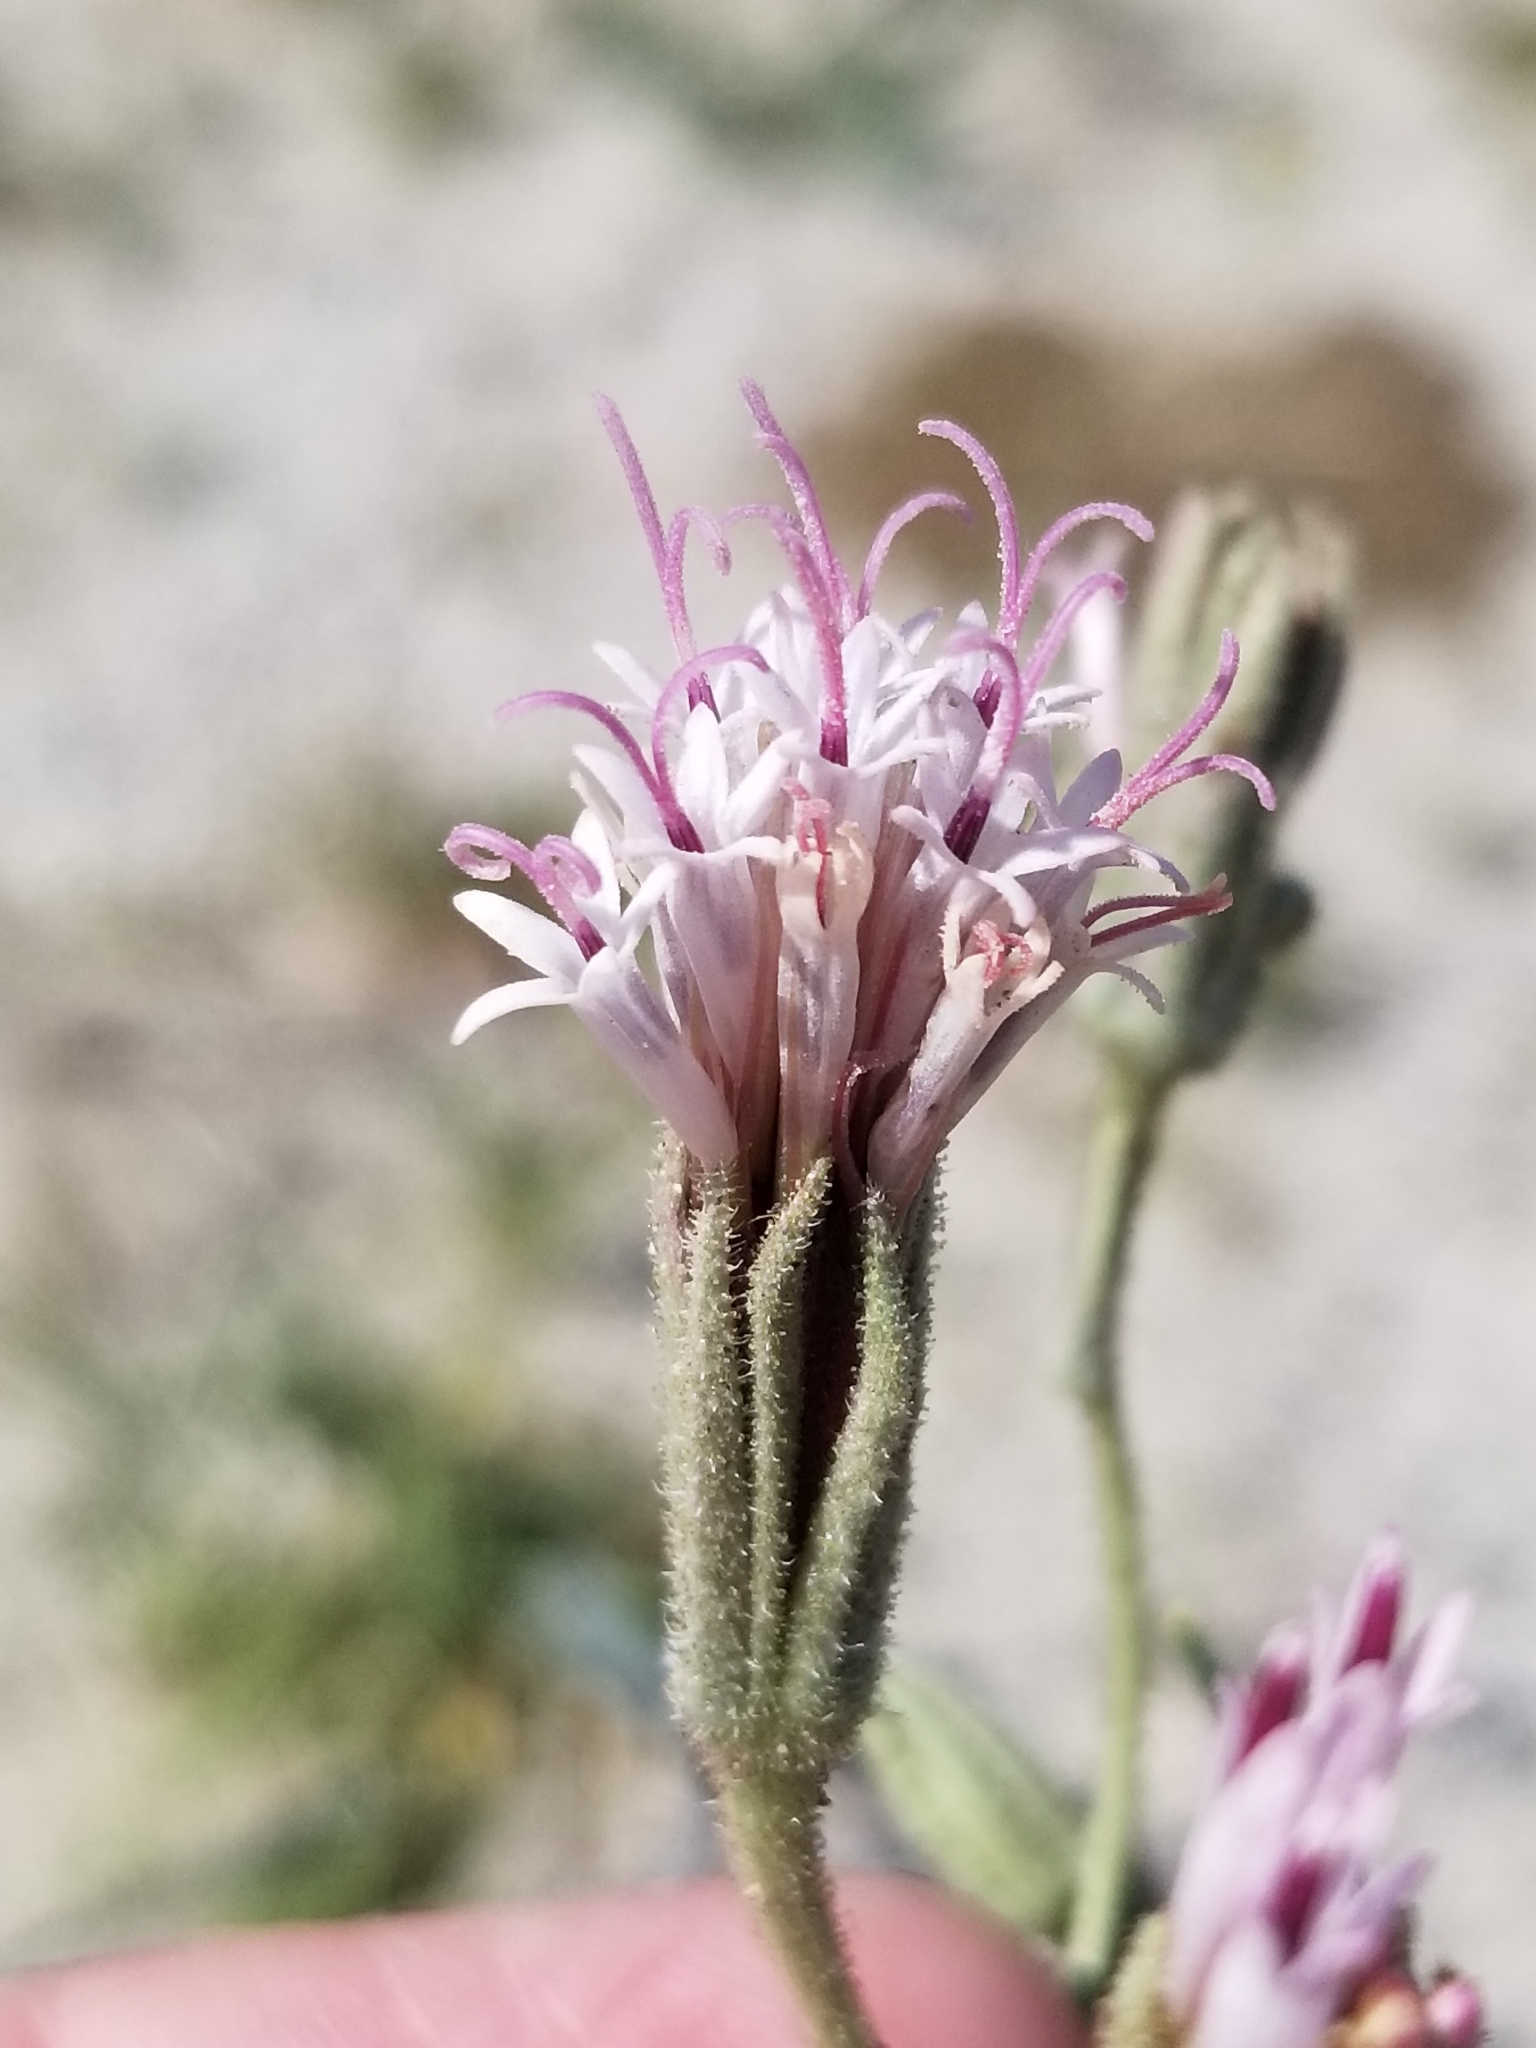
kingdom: Plantae
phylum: Tracheophyta
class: Magnoliopsida
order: Asterales
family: Asteraceae
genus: Palafoxia
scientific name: Palafoxia arida
